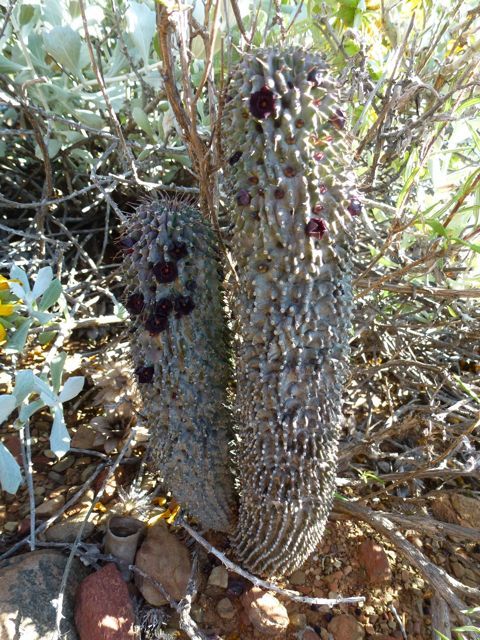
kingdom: Plantae
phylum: Tracheophyta
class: Magnoliopsida
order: Gentianales
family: Apocynaceae
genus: Ceropegia
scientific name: Ceropegia pilifera
